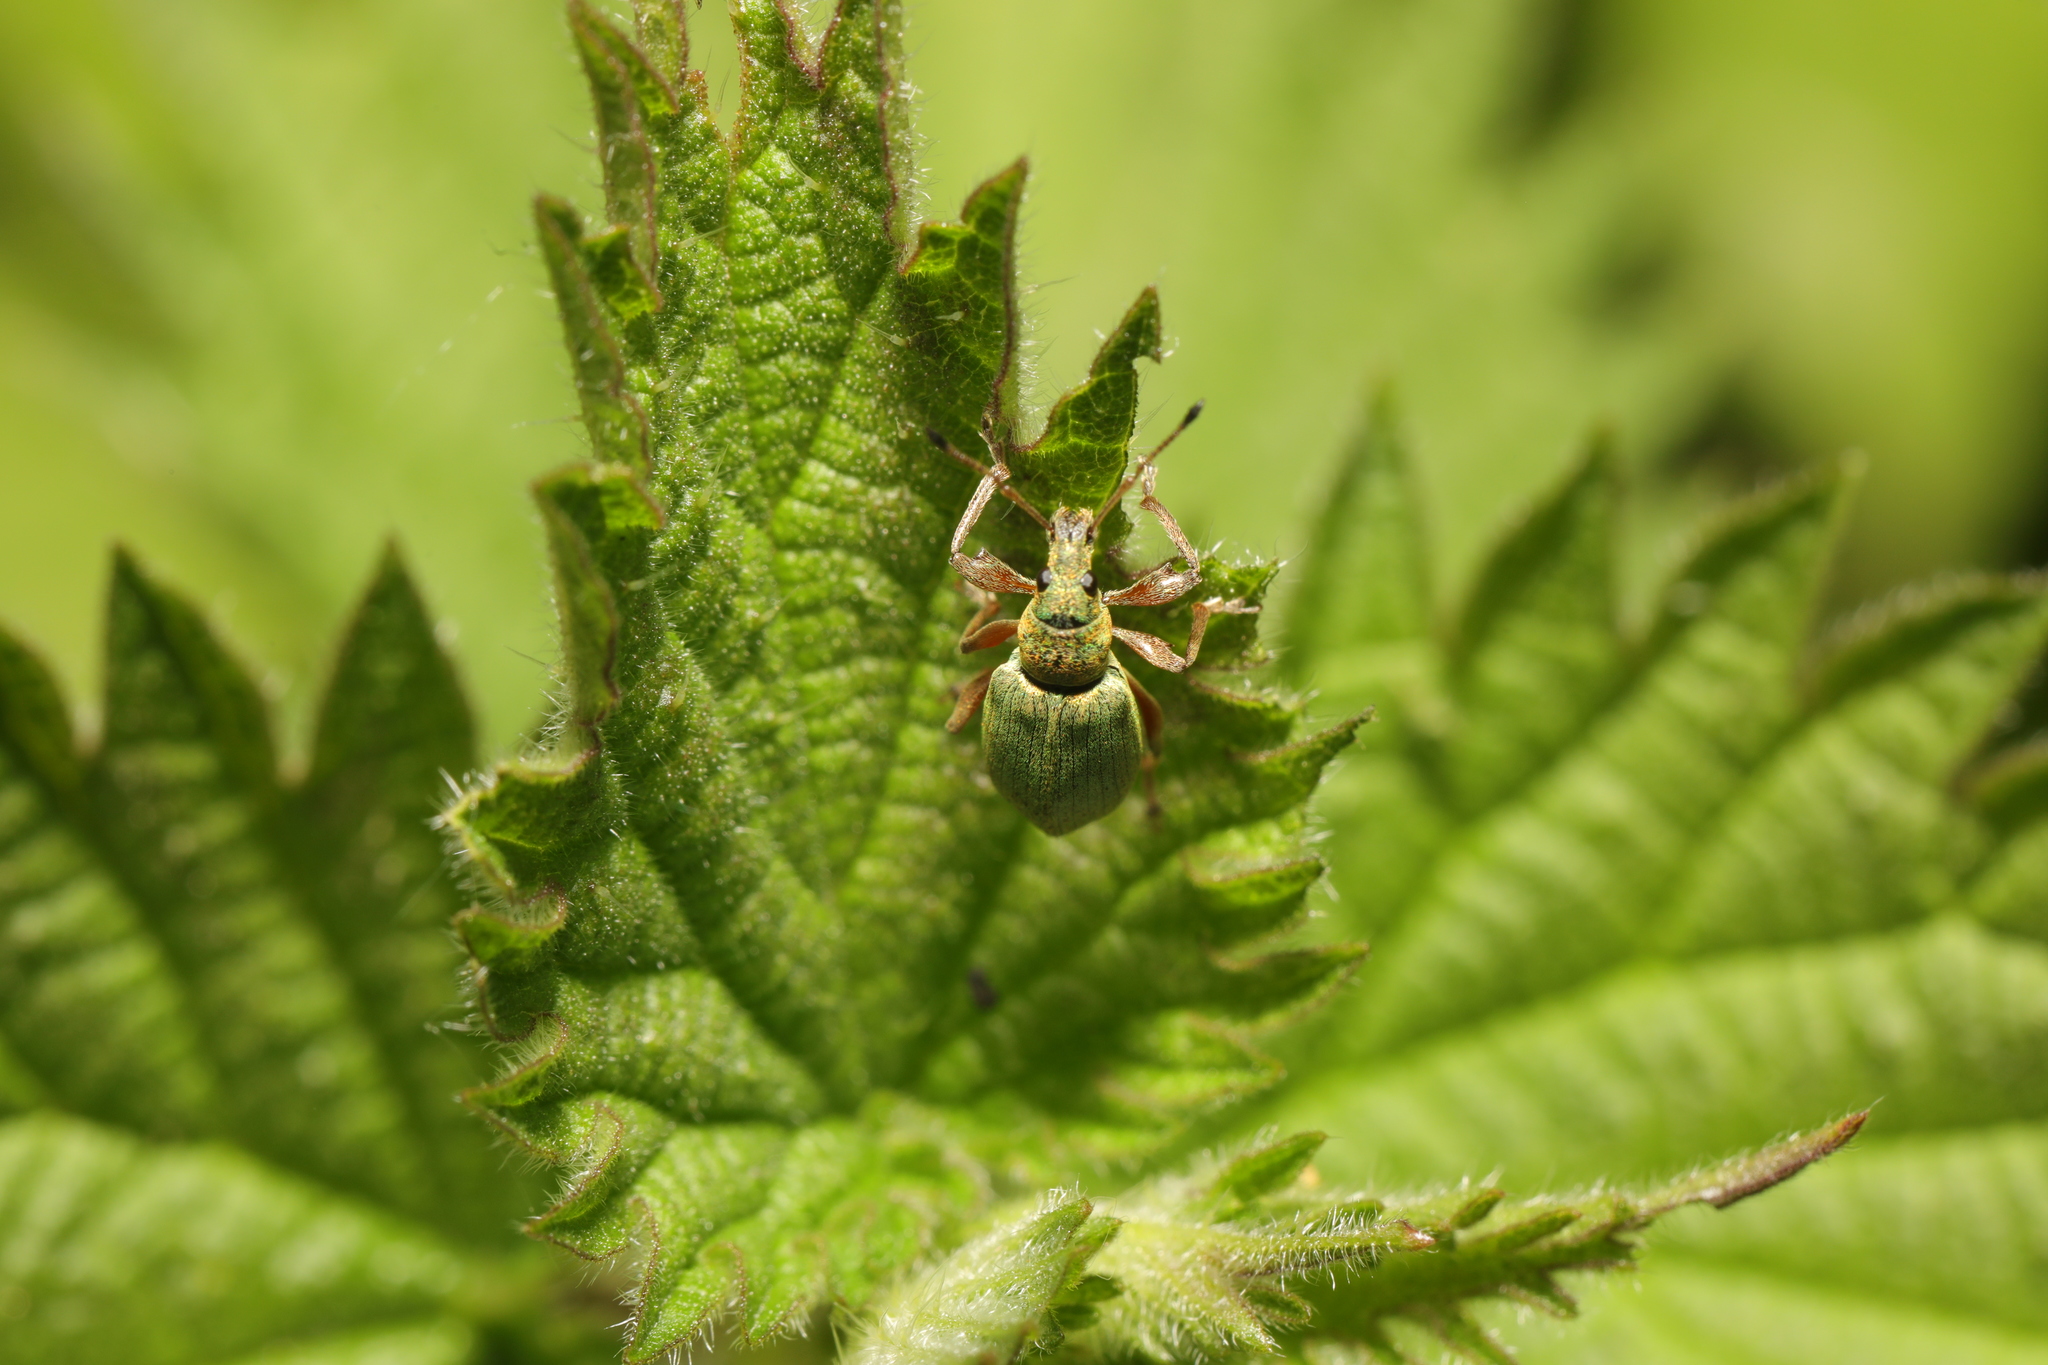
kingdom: Animalia
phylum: Arthropoda
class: Insecta
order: Coleoptera
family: Curculionidae
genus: Phyllobius
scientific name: Phyllobius pomaceus
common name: Green nettle weevil
